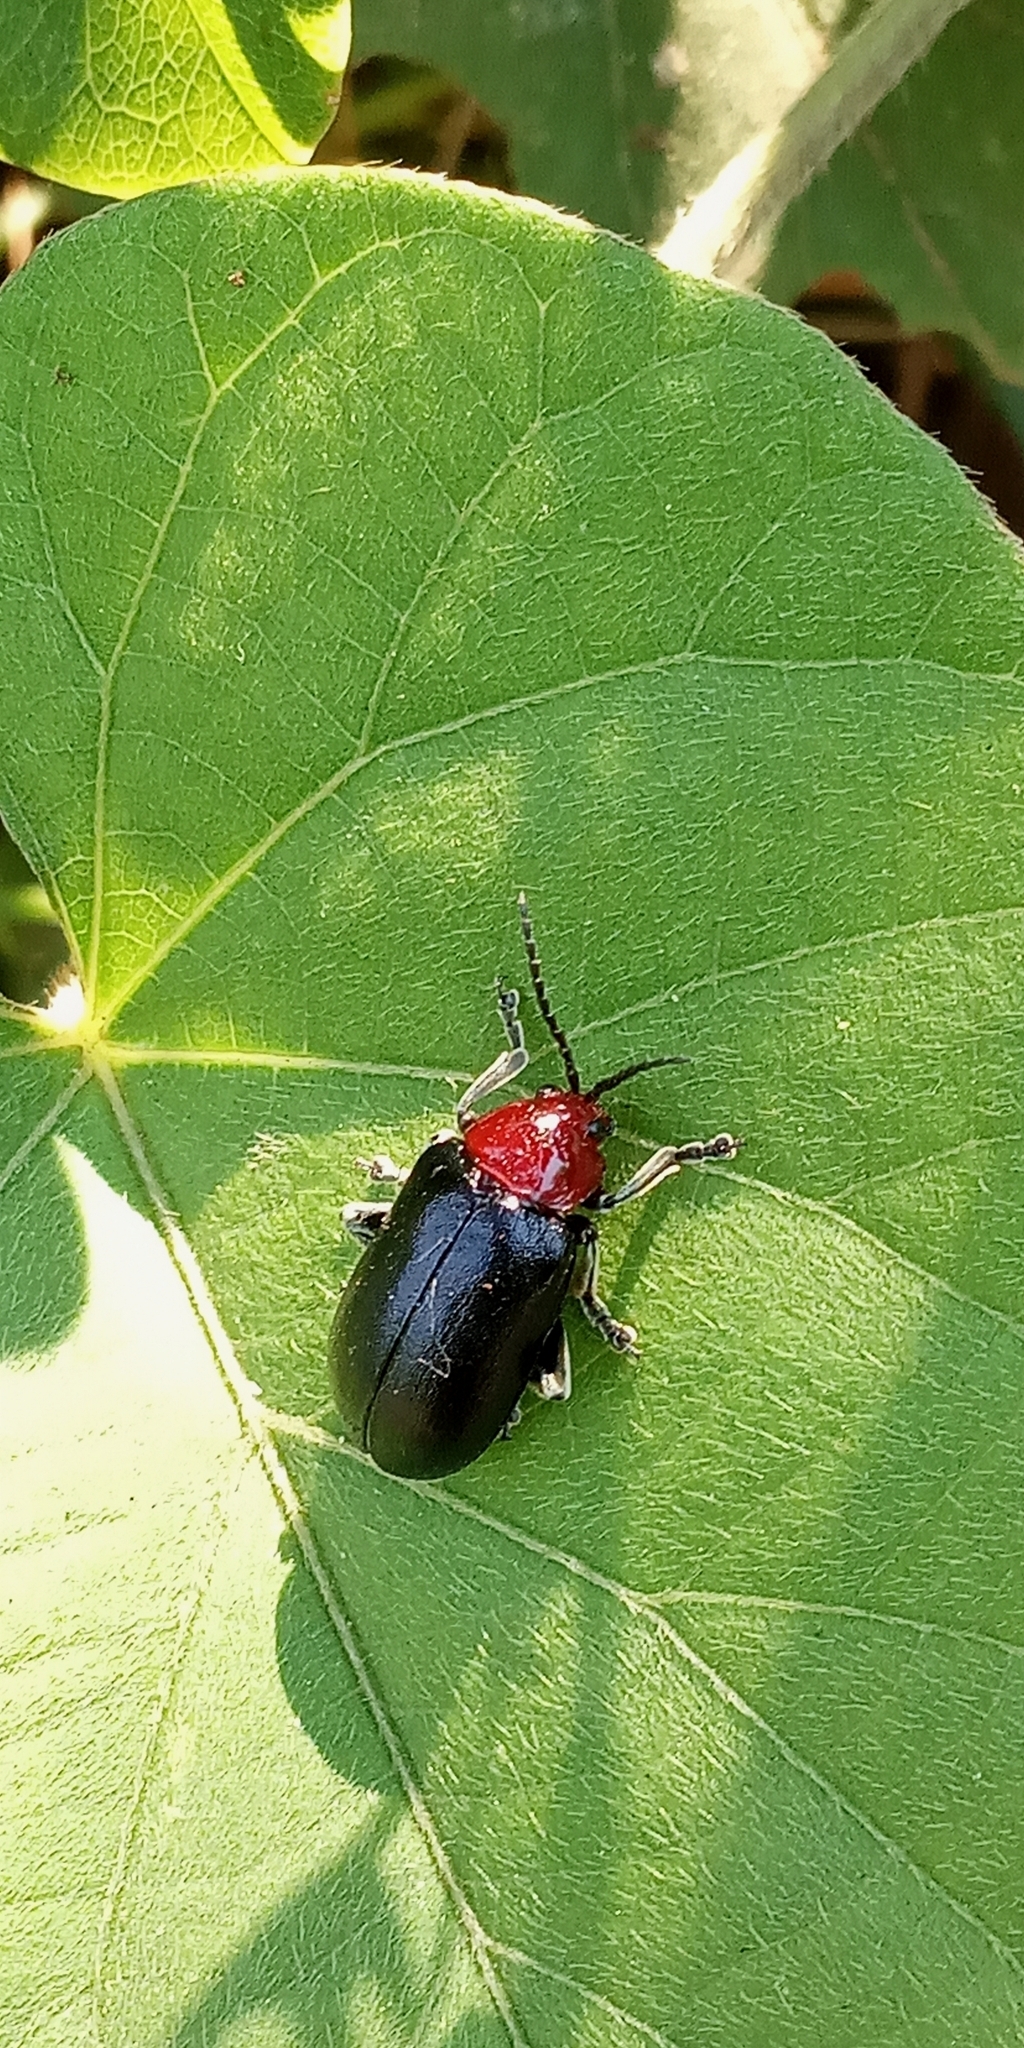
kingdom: Animalia
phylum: Arthropoda
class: Insecta
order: Coleoptera
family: Chrysomelidae
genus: Cacoscelis
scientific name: Cacoscelis
